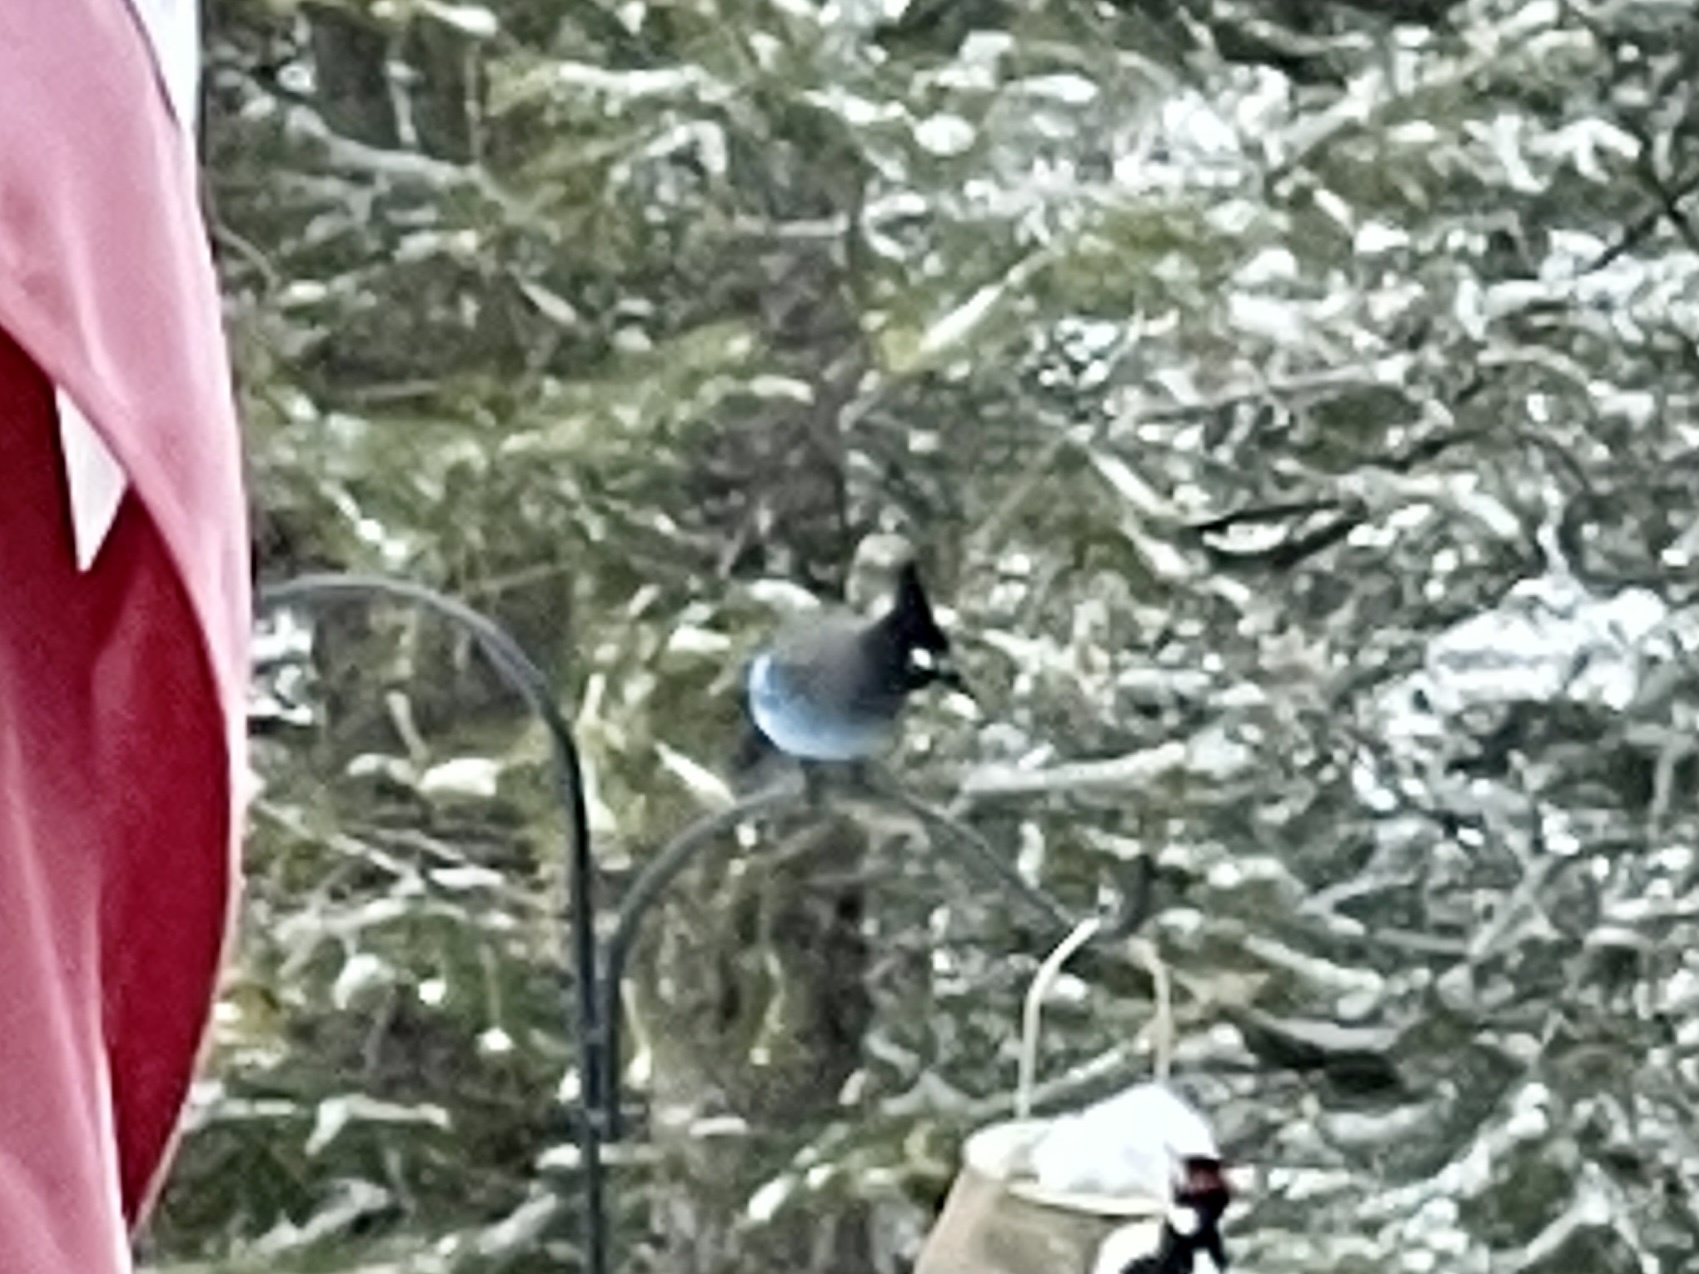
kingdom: Animalia
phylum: Chordata
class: Aves
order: Passeriformes
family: Corvidae
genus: Cyanocitta
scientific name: Cyanocitta stelleri
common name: Steller's jay
